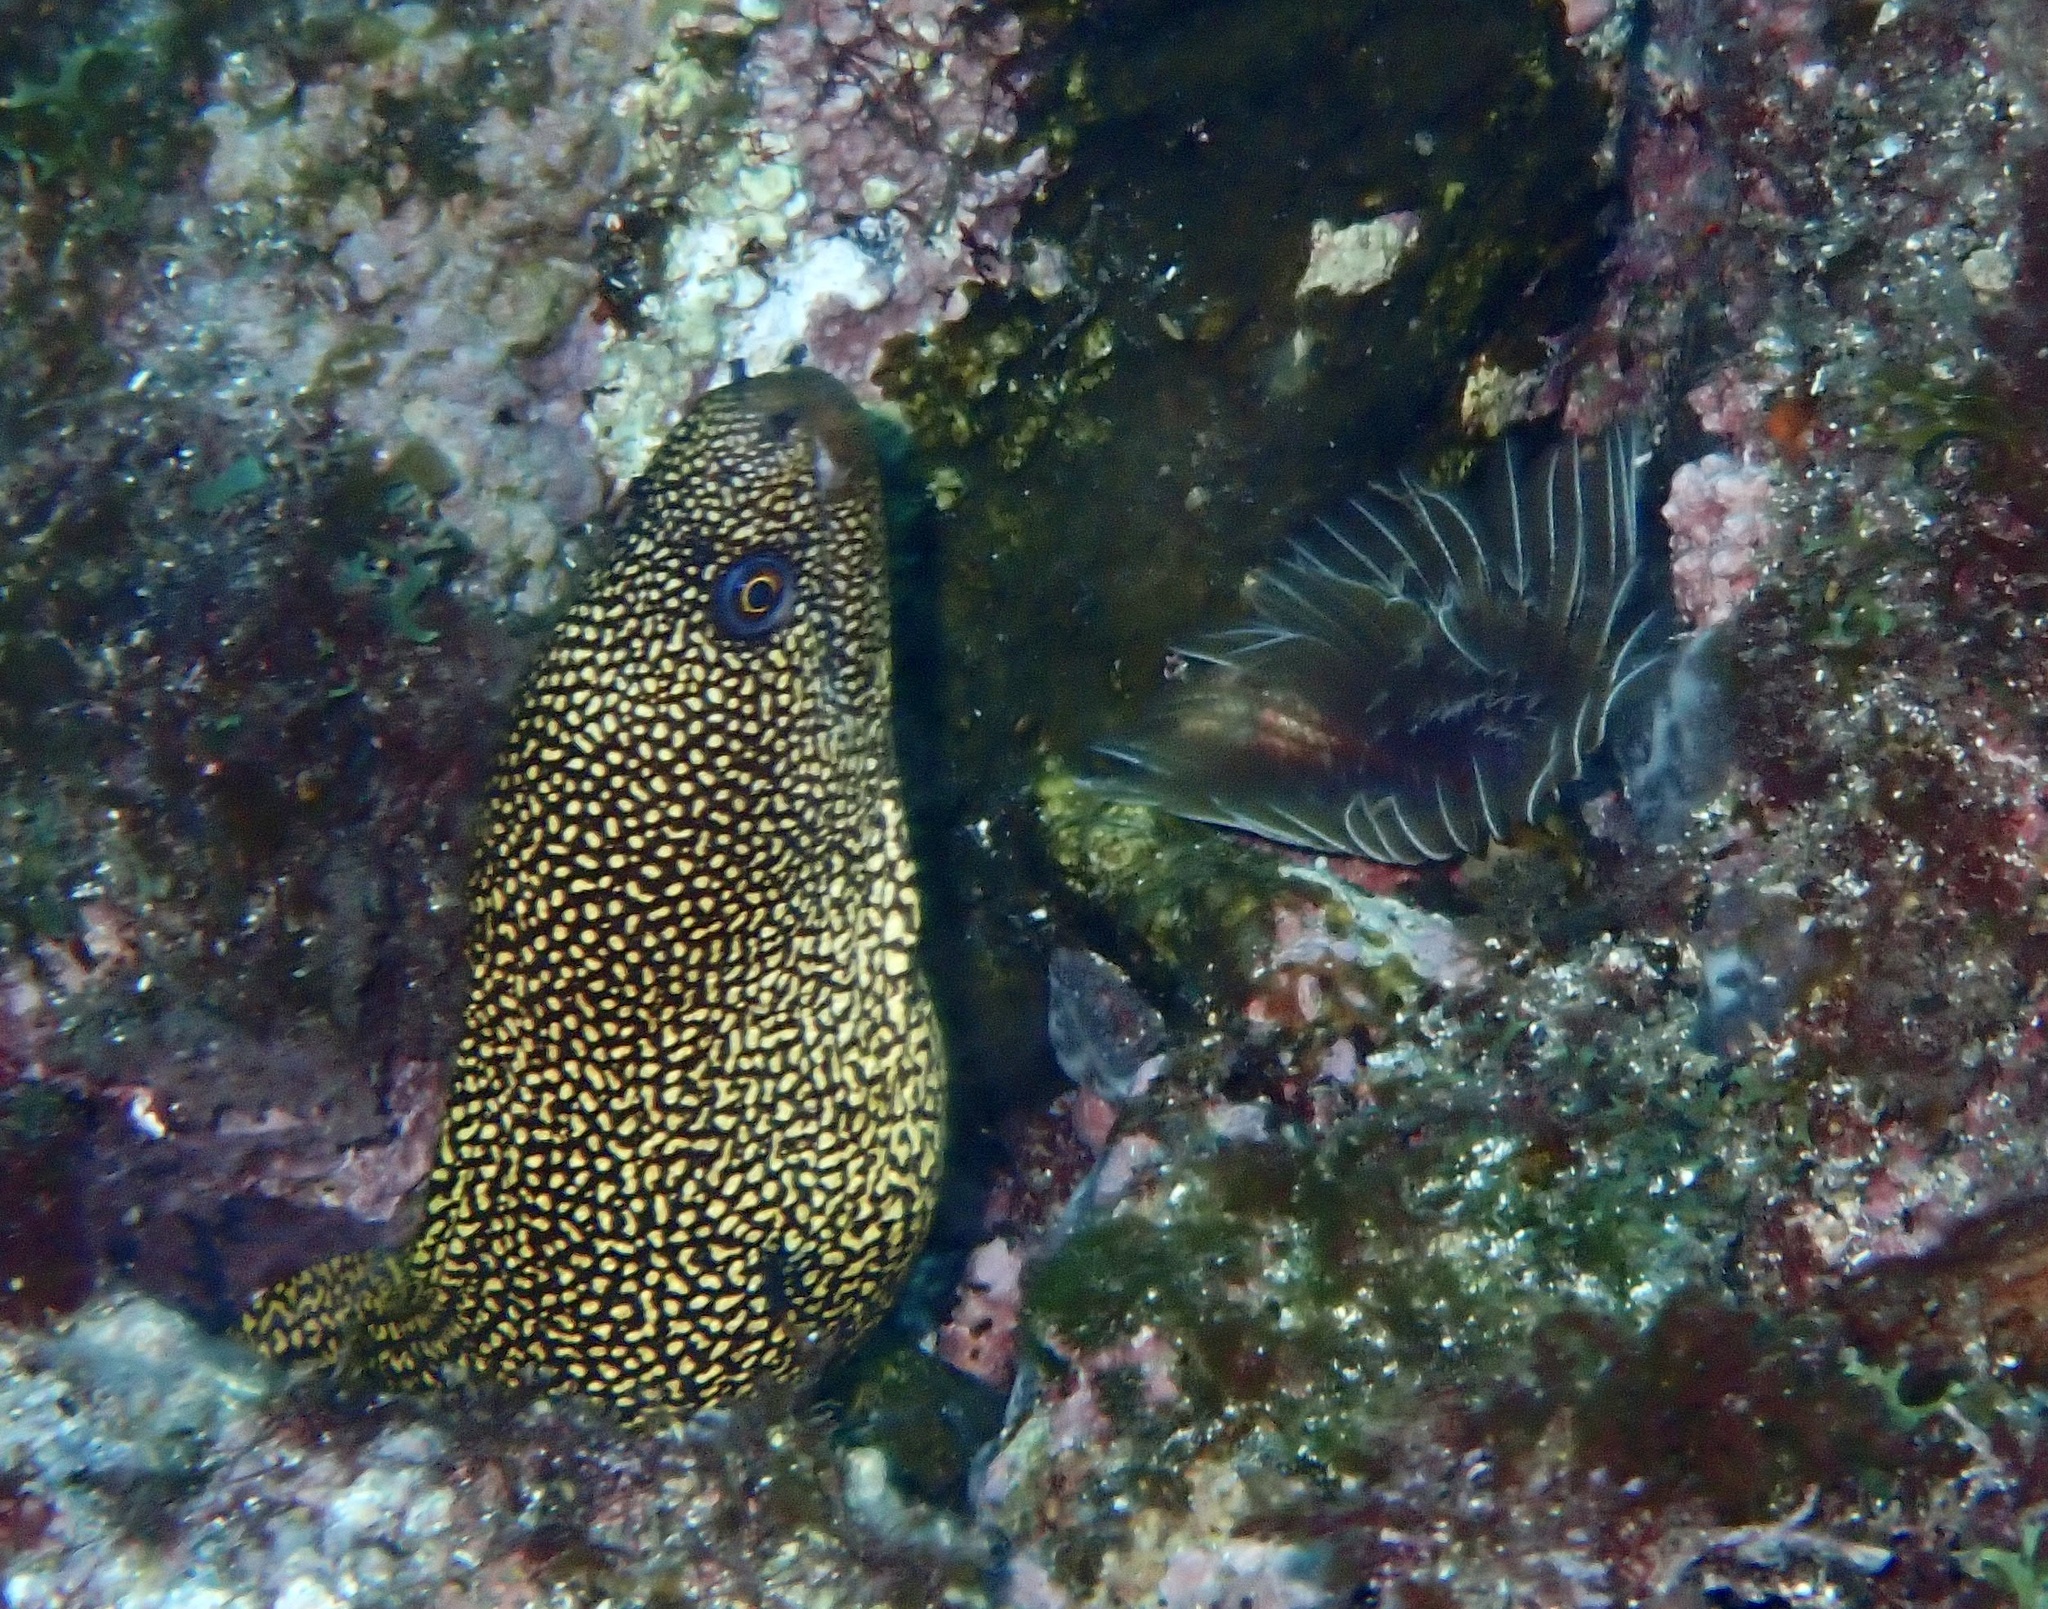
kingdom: Animalia
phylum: Chordata
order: Anguilliformes
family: Muraenidae
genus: Gymnothorax
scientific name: Gymnothorax miliaris
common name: Goldentail moray
